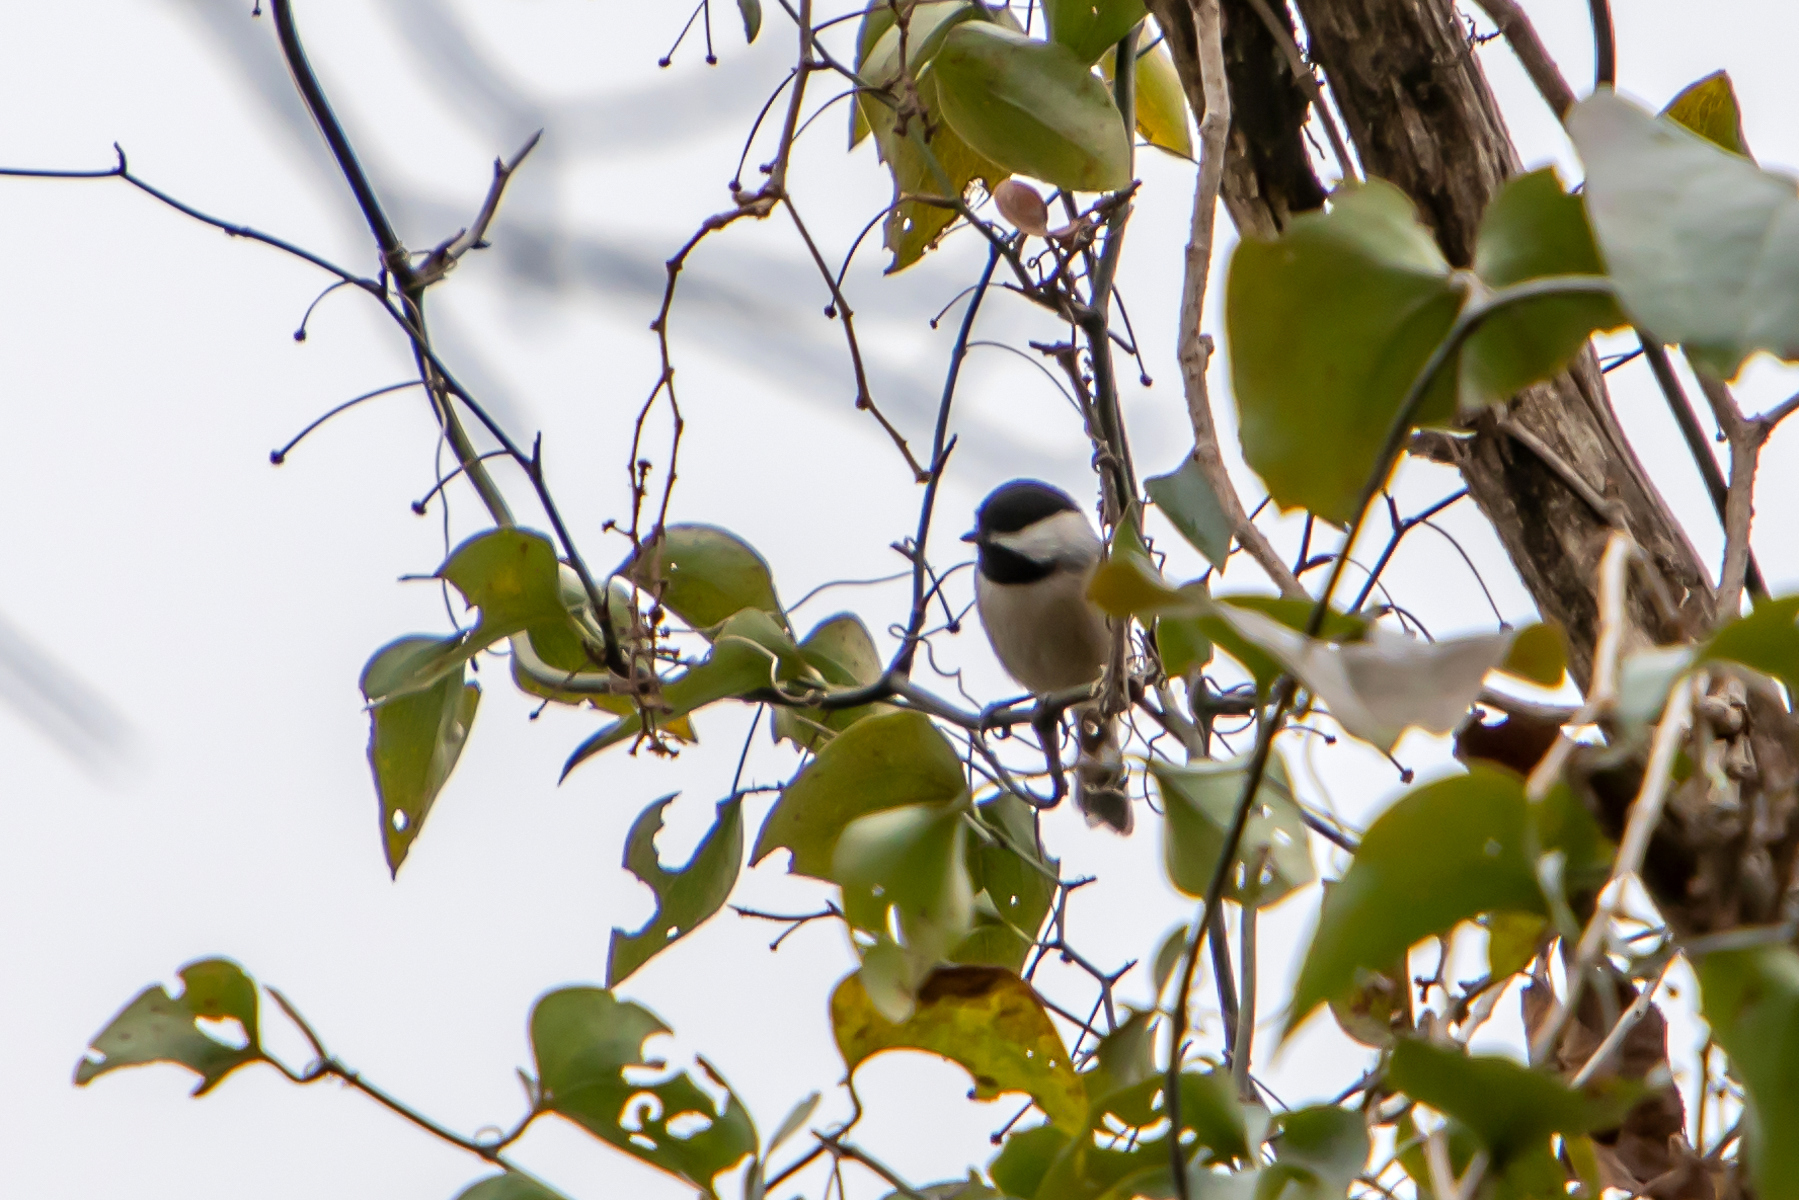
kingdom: Animalia
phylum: Chordata
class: Aves
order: Passeriformes
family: Paridae
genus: Poecile
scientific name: Poecile carolinensis
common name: Carolina chickadee
